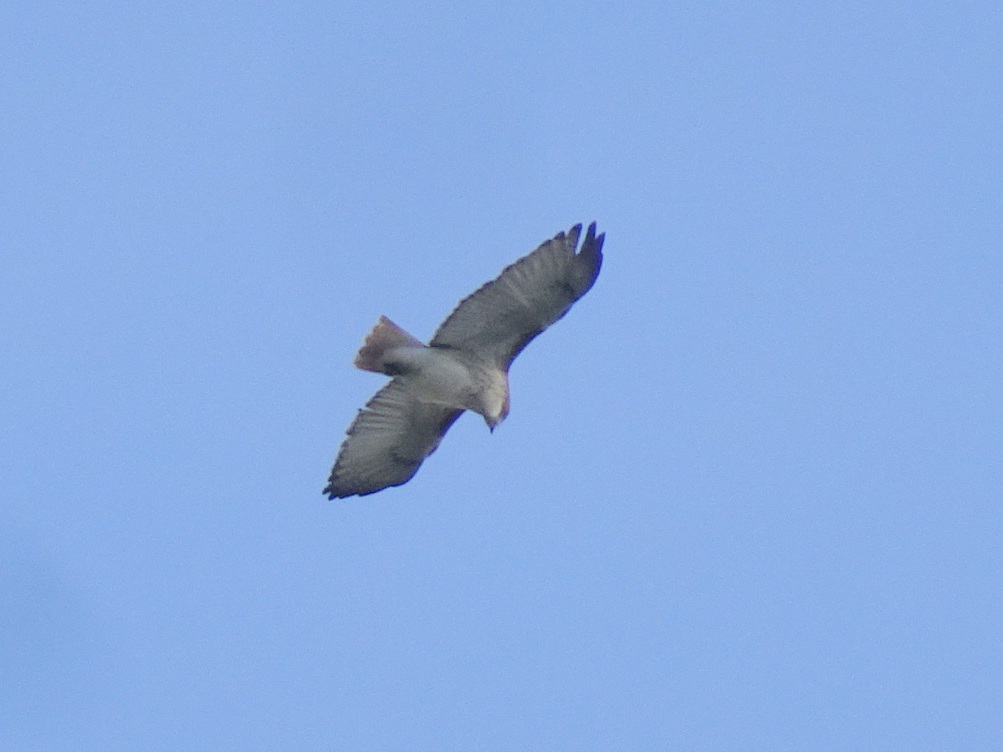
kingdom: Animalia
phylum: Chordata
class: Aves
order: Accipitriformes
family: Accipitridae
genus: Buteo
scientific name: Buteo jamaicensis
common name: Red-tailed hawk
